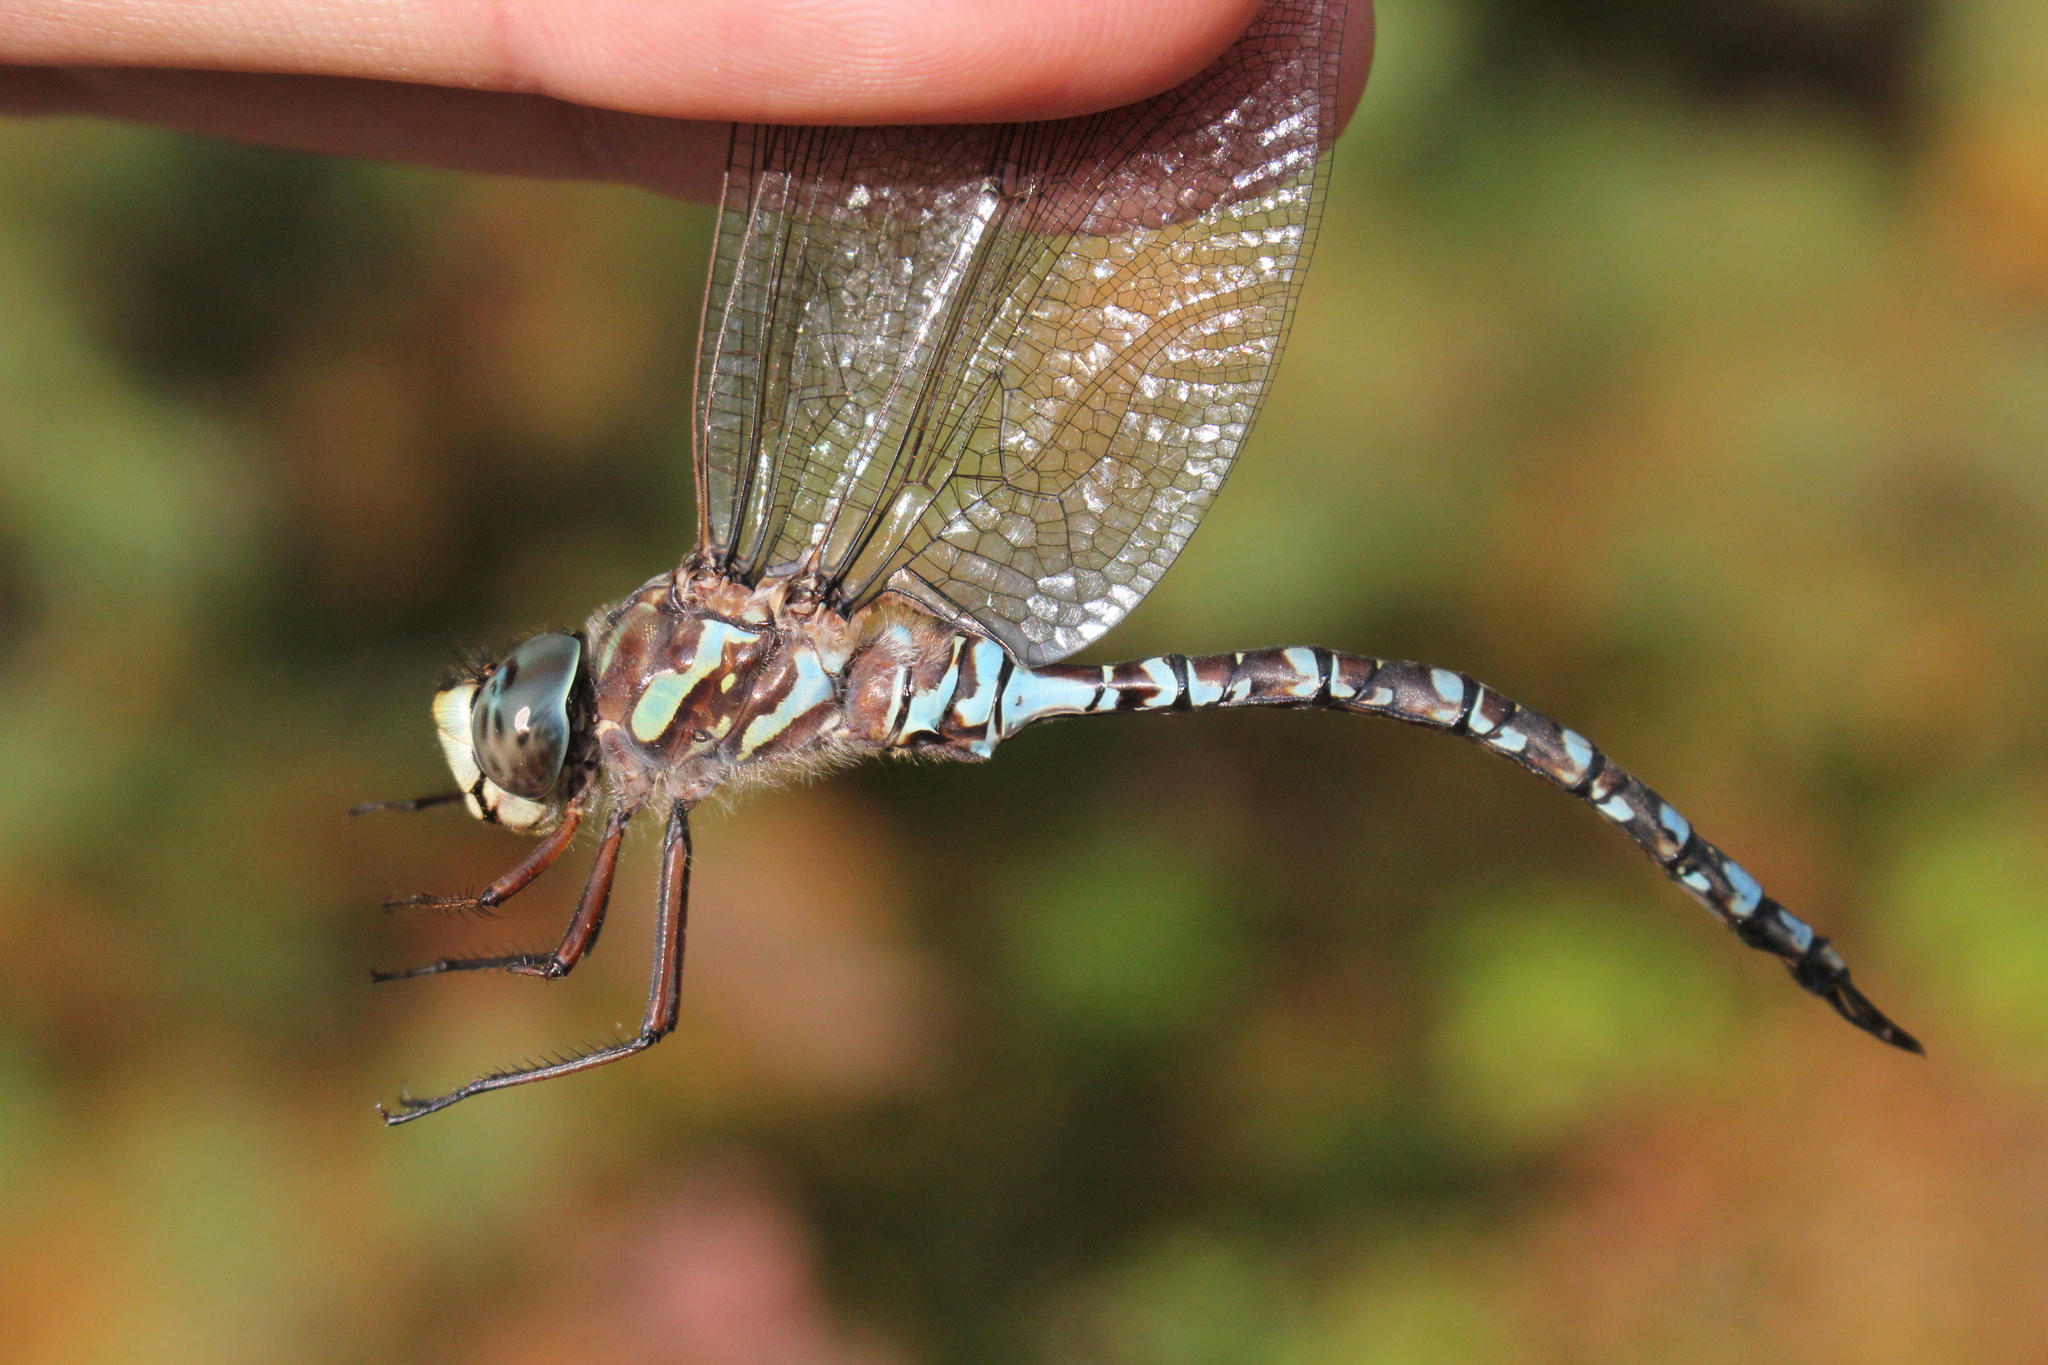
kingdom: Animalia
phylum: Arthropoda
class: Insecta
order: Odonata
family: Aeshnidae
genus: Aeshna
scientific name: Aeshna canadensis
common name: Canada darner
